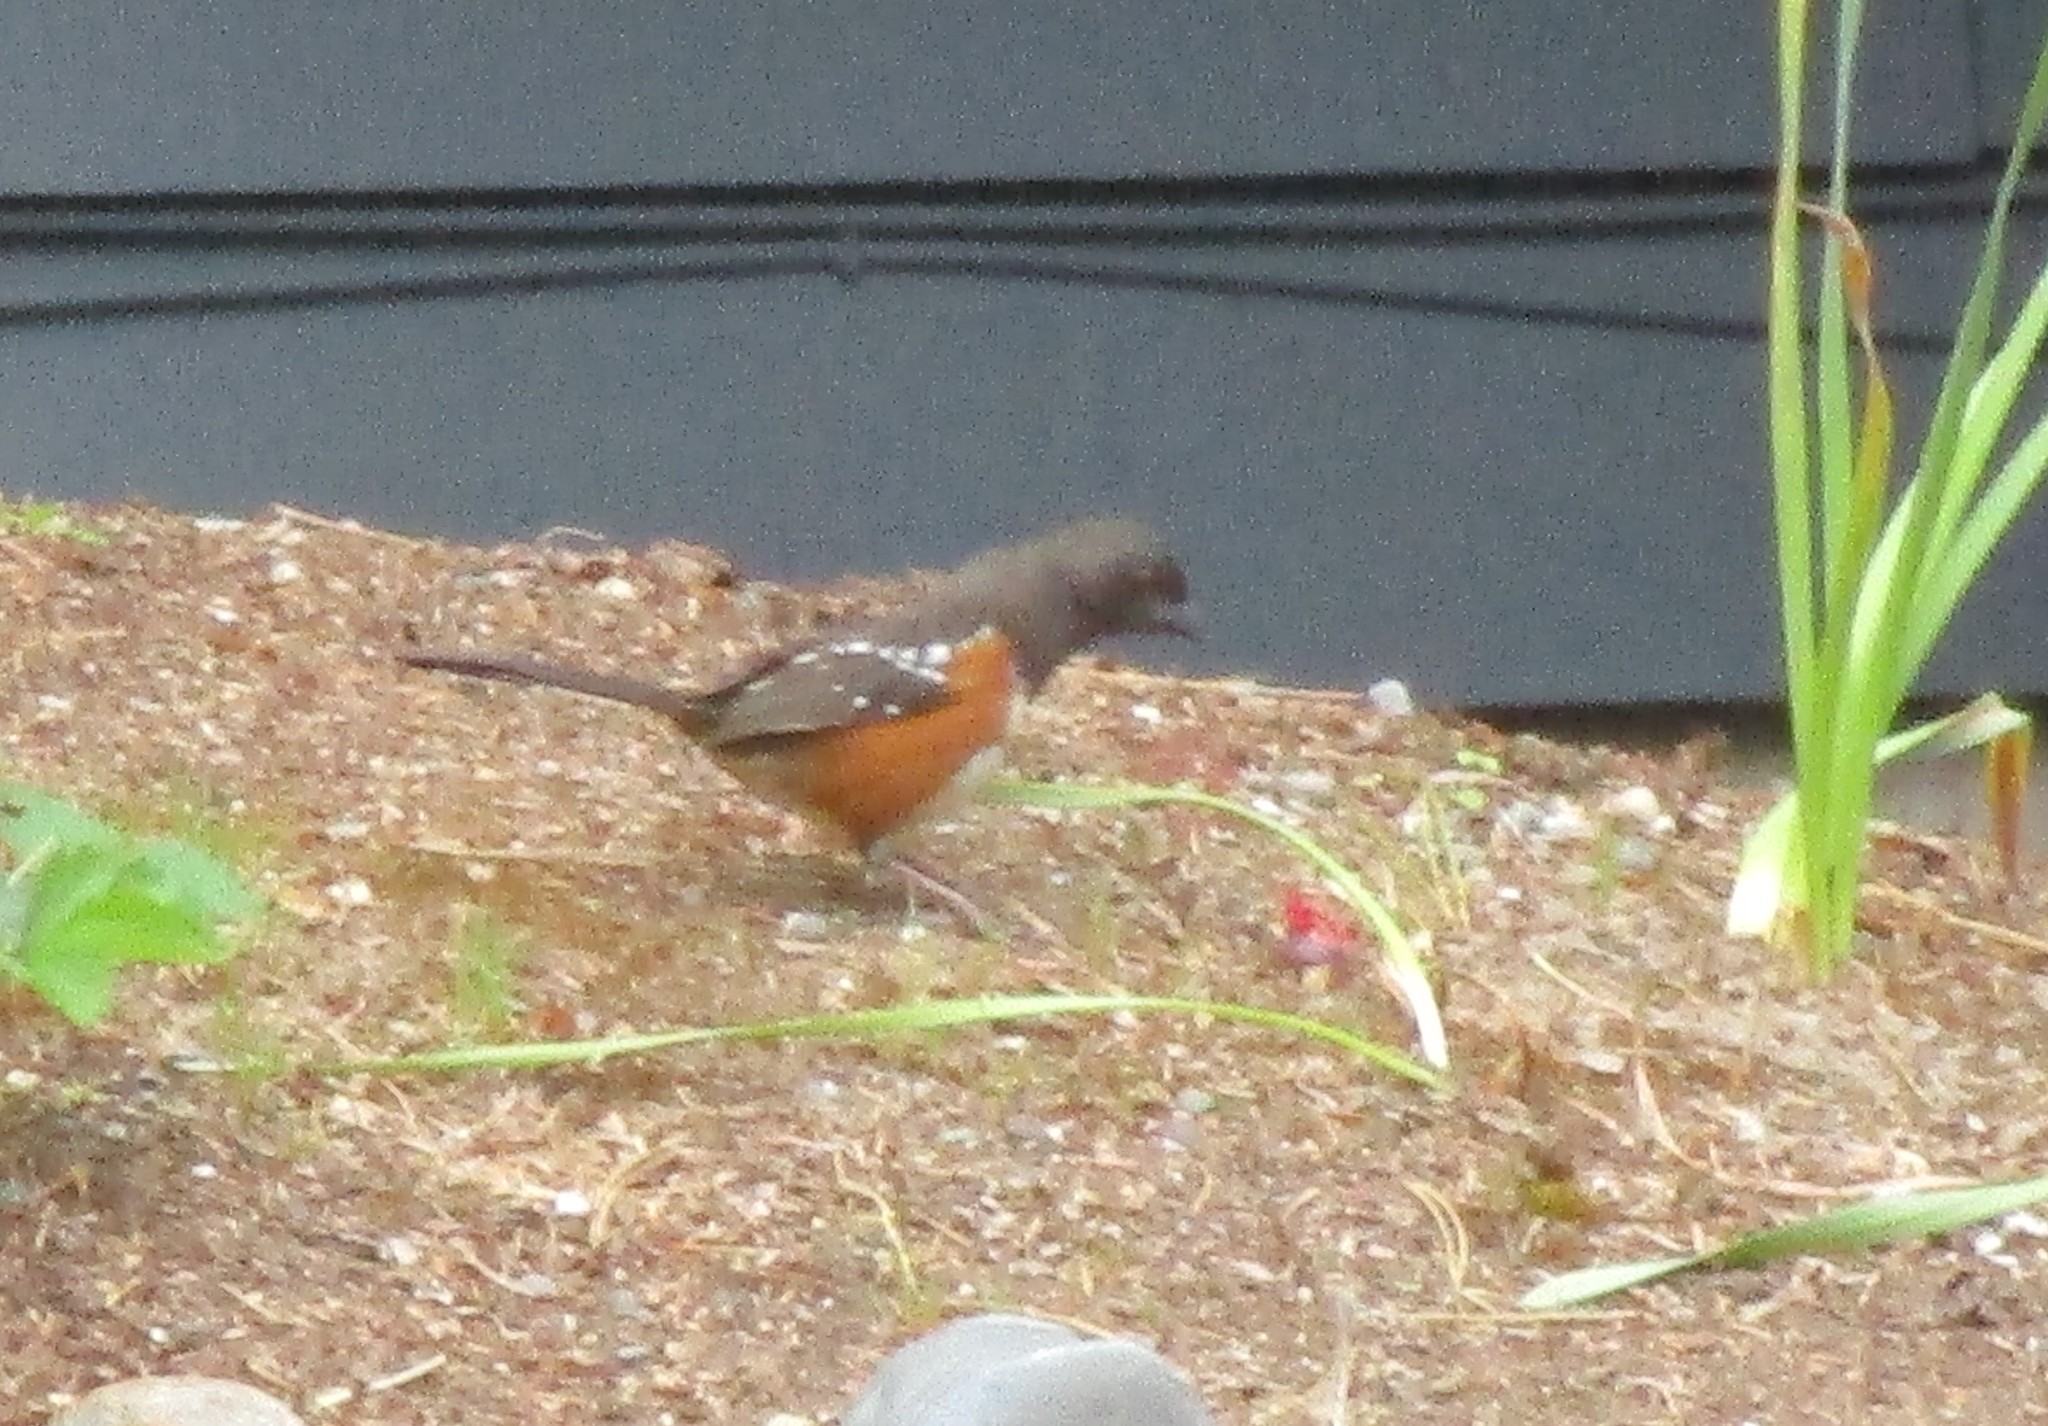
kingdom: Animalia
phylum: Chordata
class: Aves
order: Passeriformes
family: Passerellidae
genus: Pipilo
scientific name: Pipilo maculatus
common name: Spotted towhee
